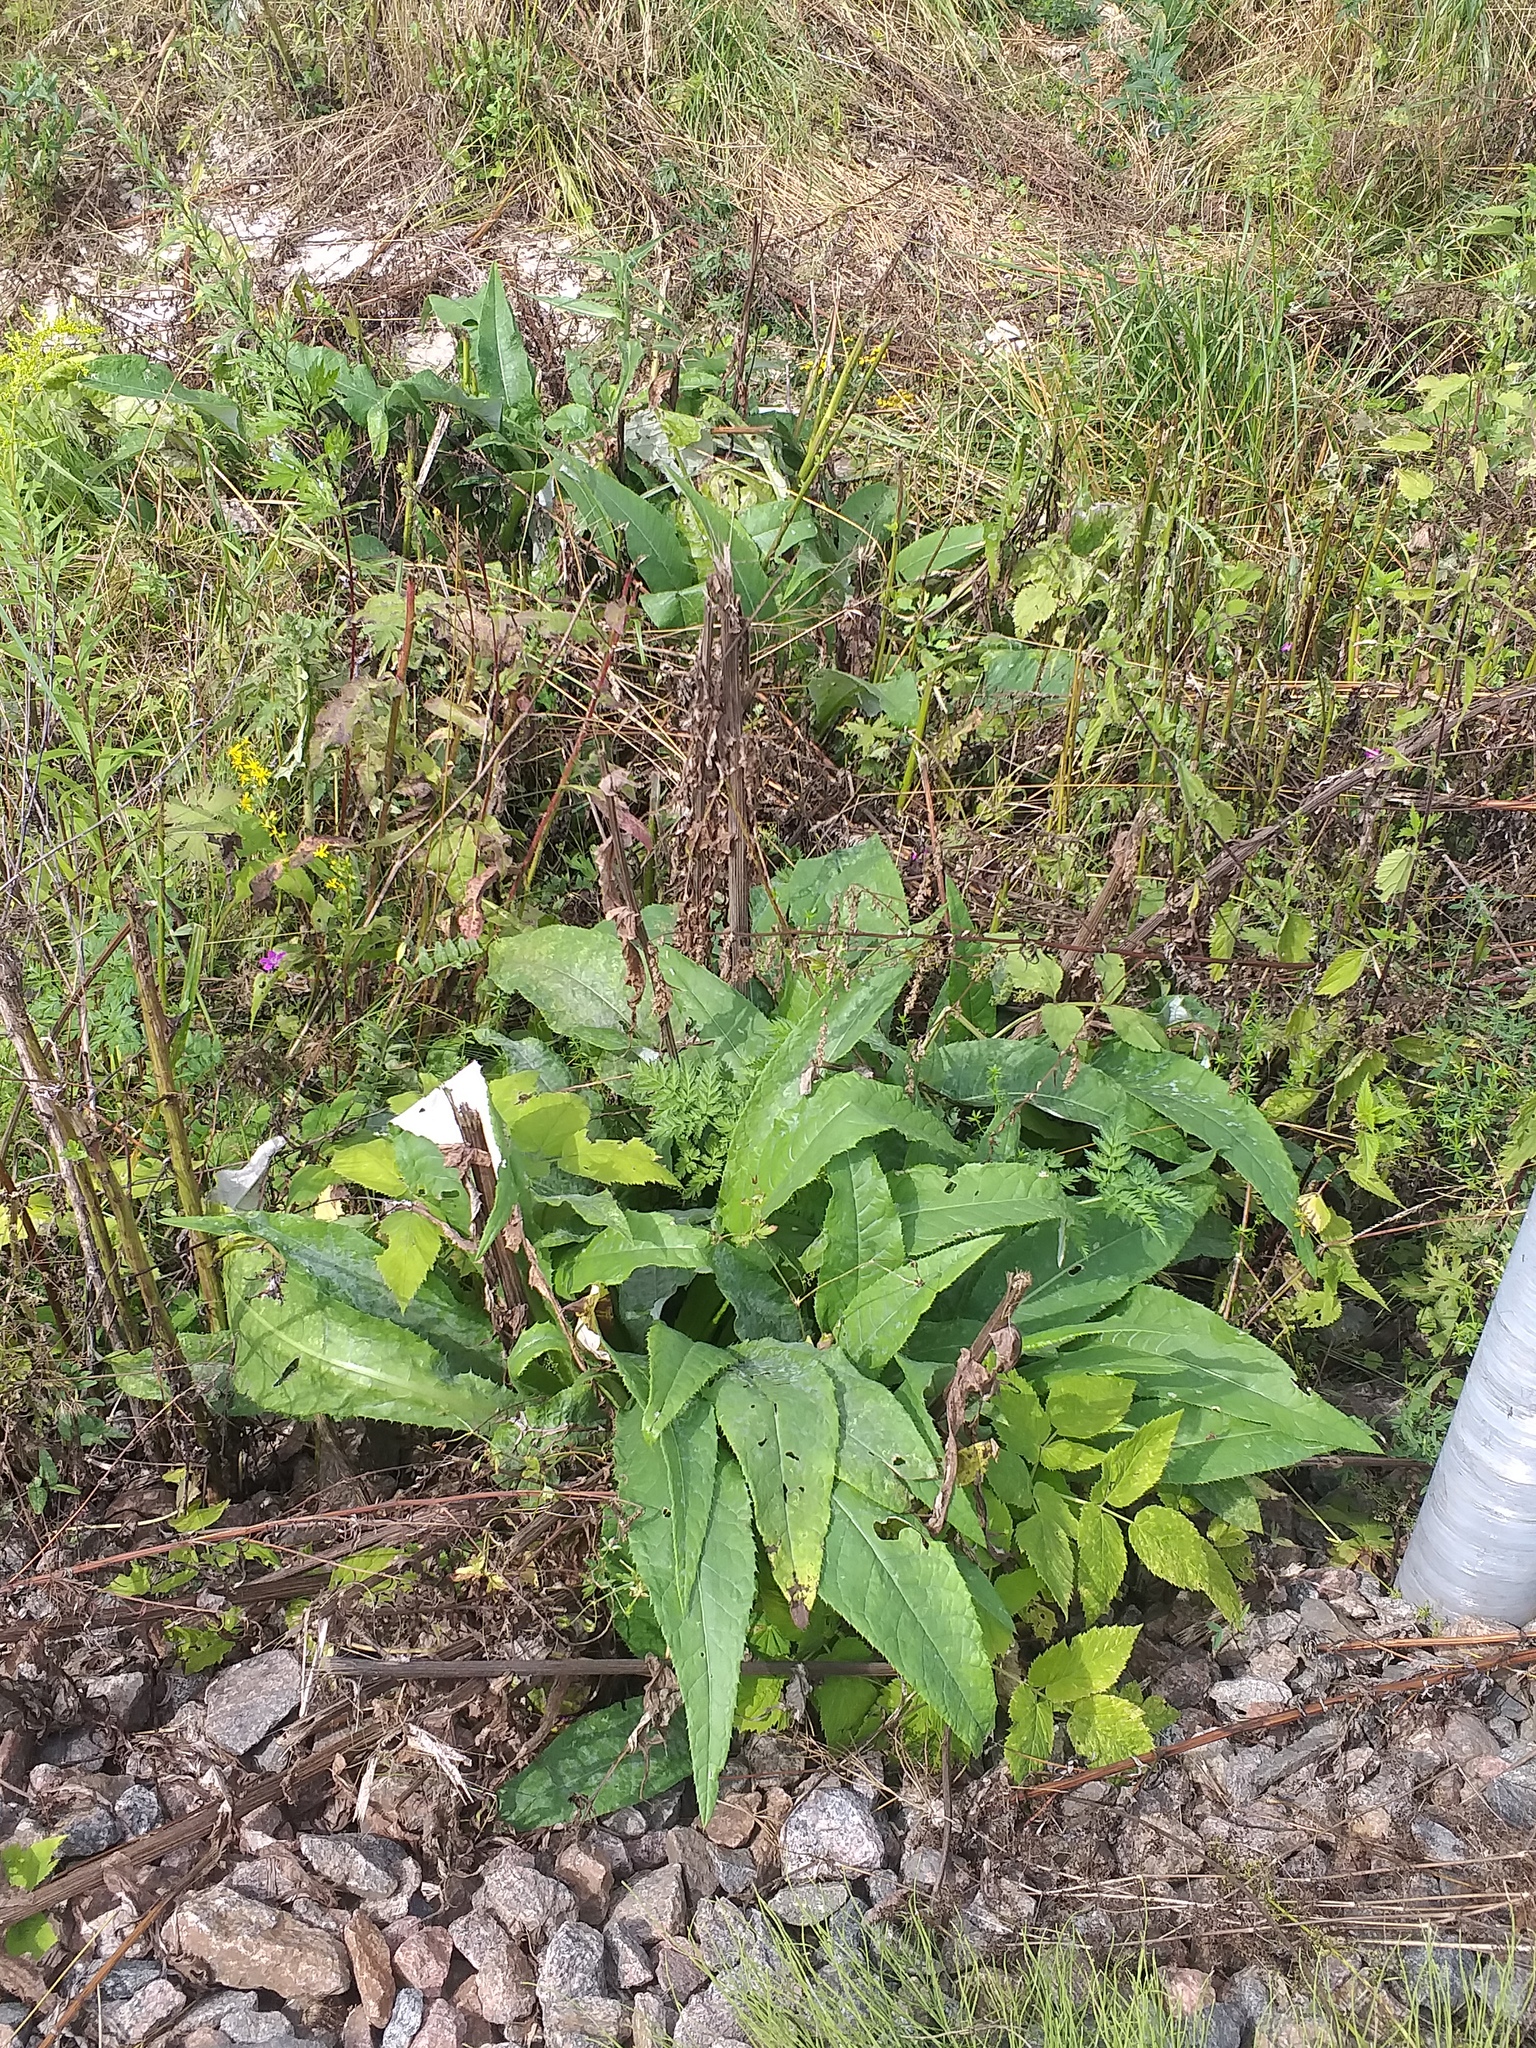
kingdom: Plantae
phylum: Tracheophyta
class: Magnoliopsida
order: Asterales
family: Asteraceae
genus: Cirsium
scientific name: Cirsium heterophyllum
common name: Melancholy thistle
